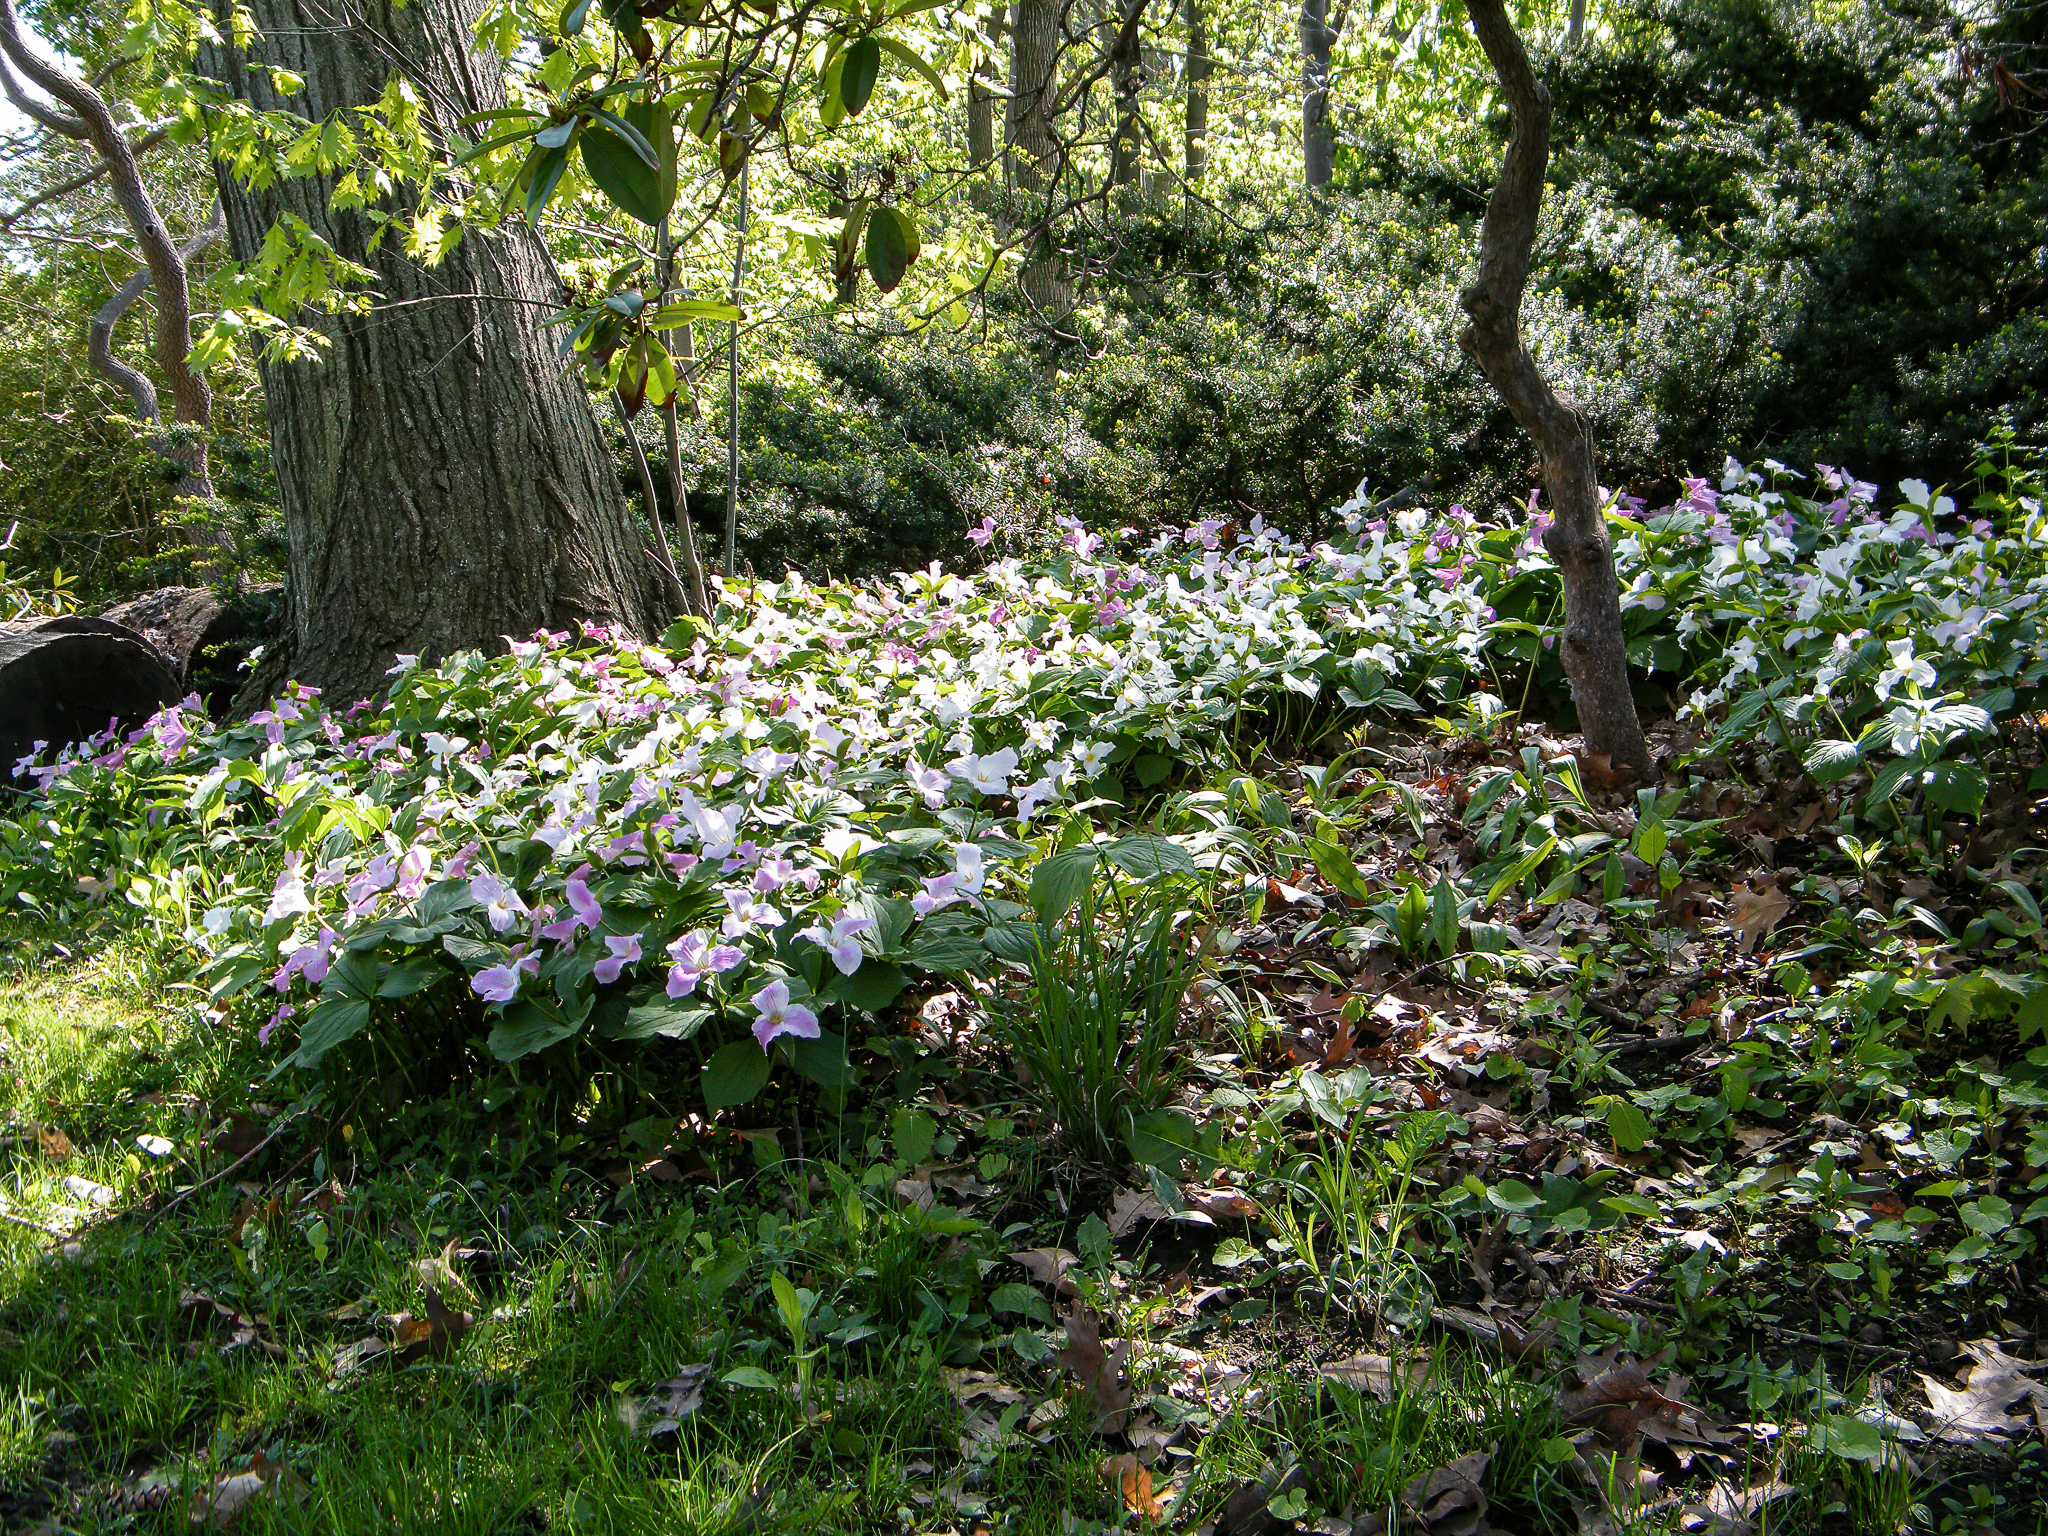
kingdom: Plantae
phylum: Tracheophyta
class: Liliopsida
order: Liliales
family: Melanthiaceae
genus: Trillium
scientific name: Trillium grandiflorum
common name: Great white trillium
